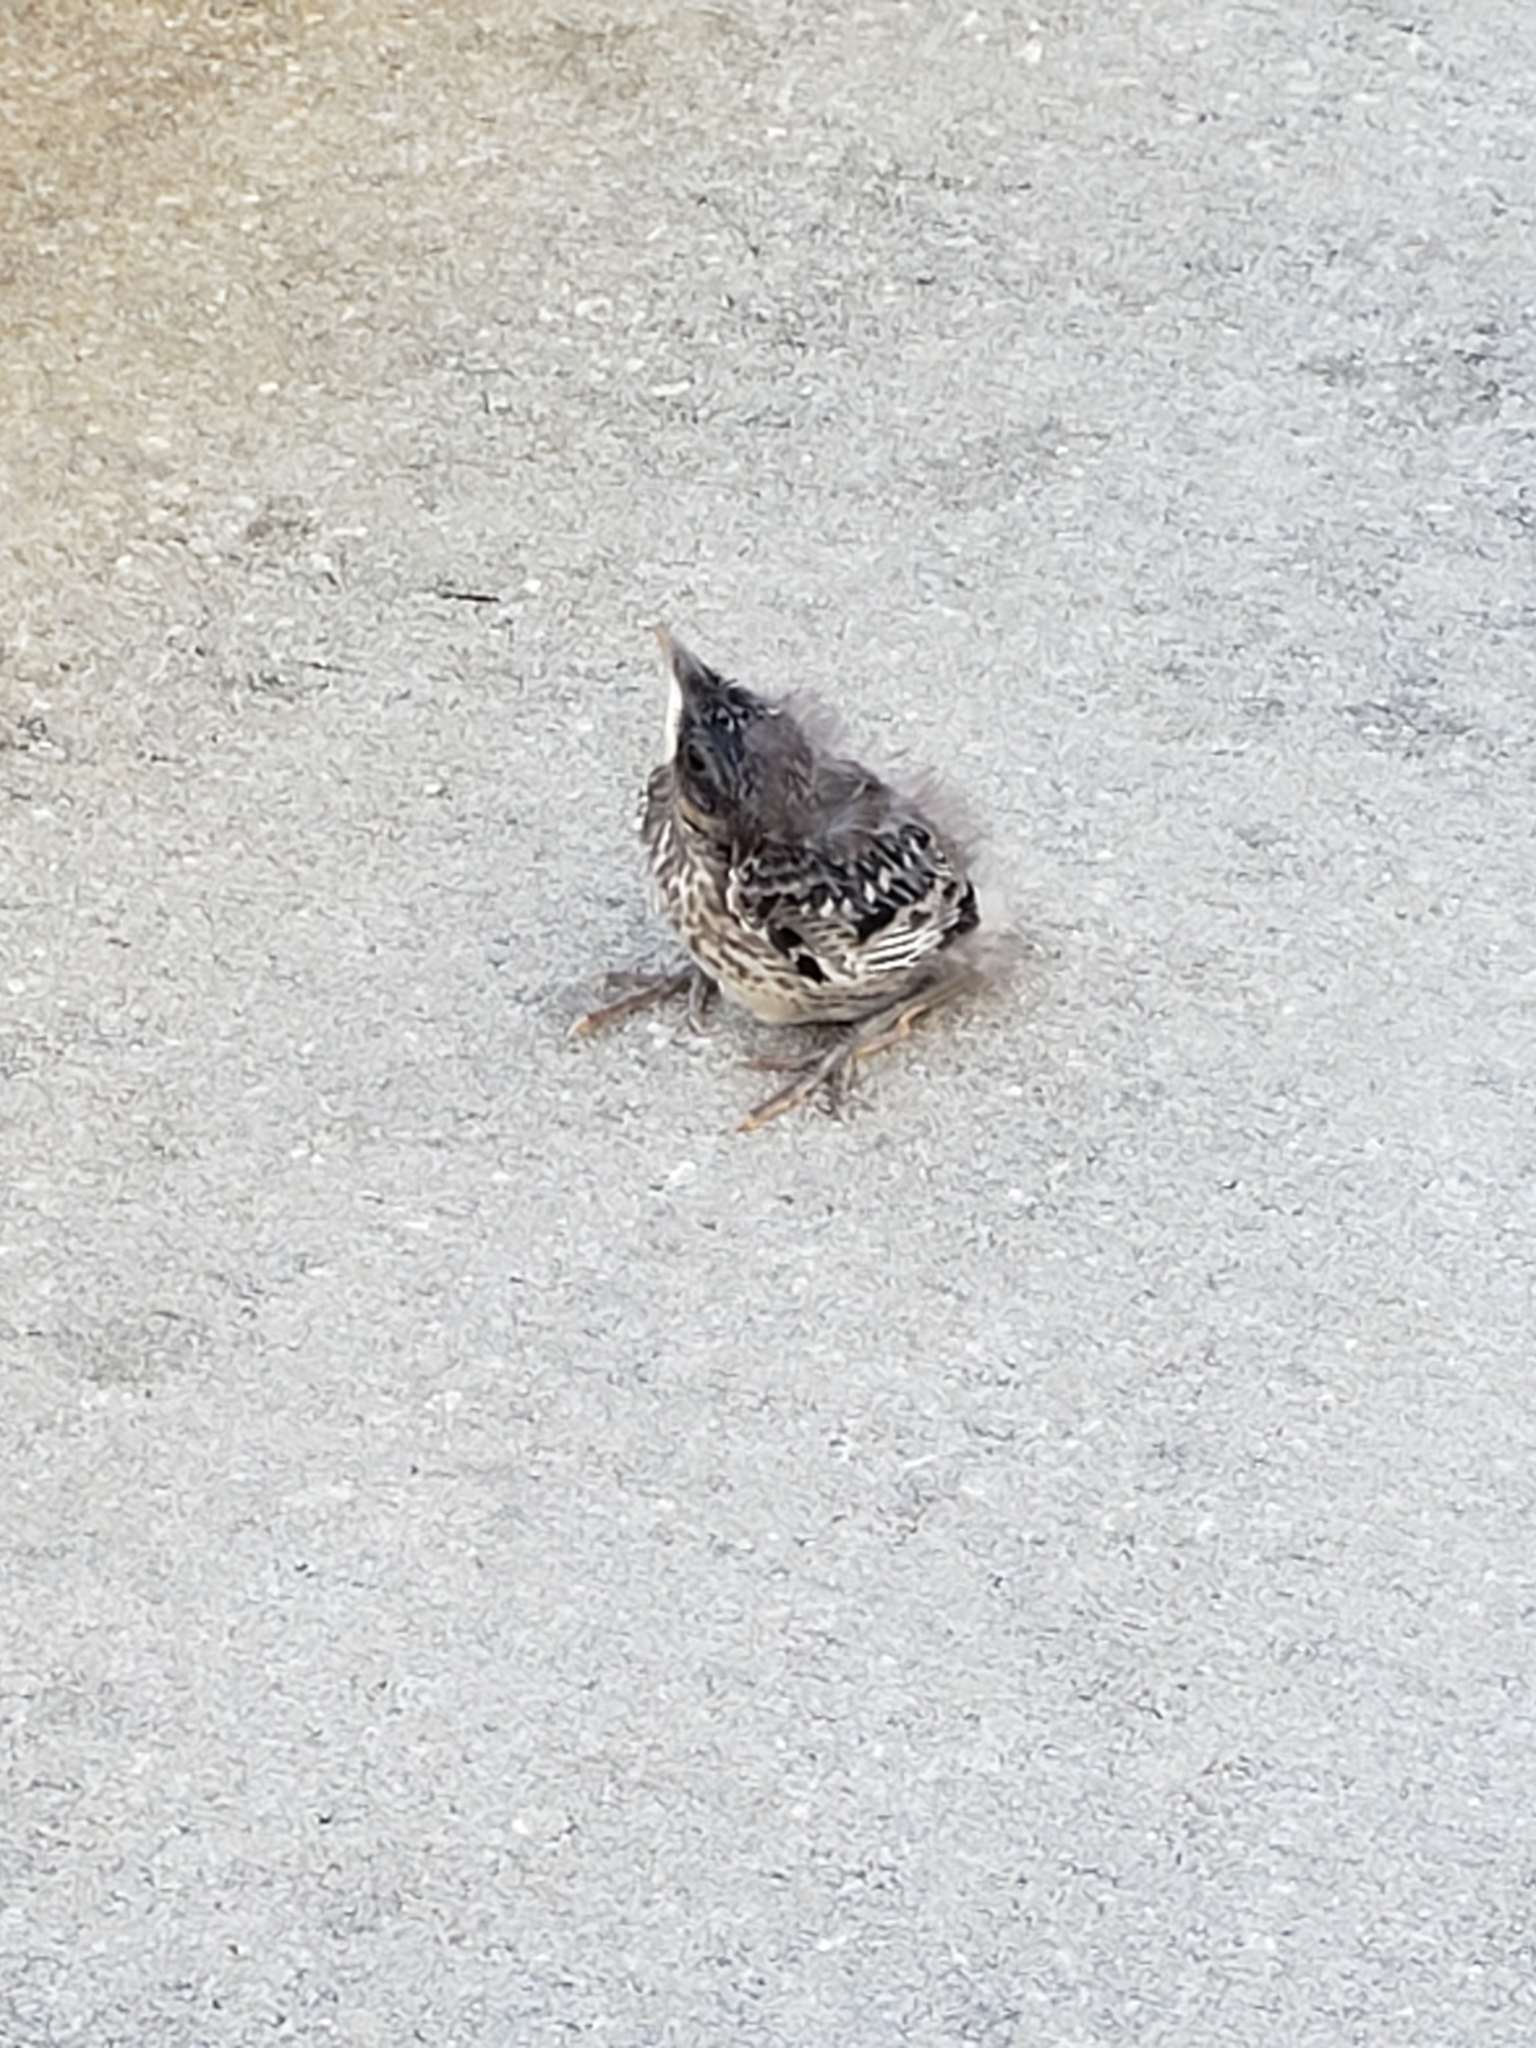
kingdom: Animalia
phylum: Chordata
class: Aves
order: Passeriformes
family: Mimidae
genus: Mimus
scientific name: Mimus polyglottos
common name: Northern mockingbird
